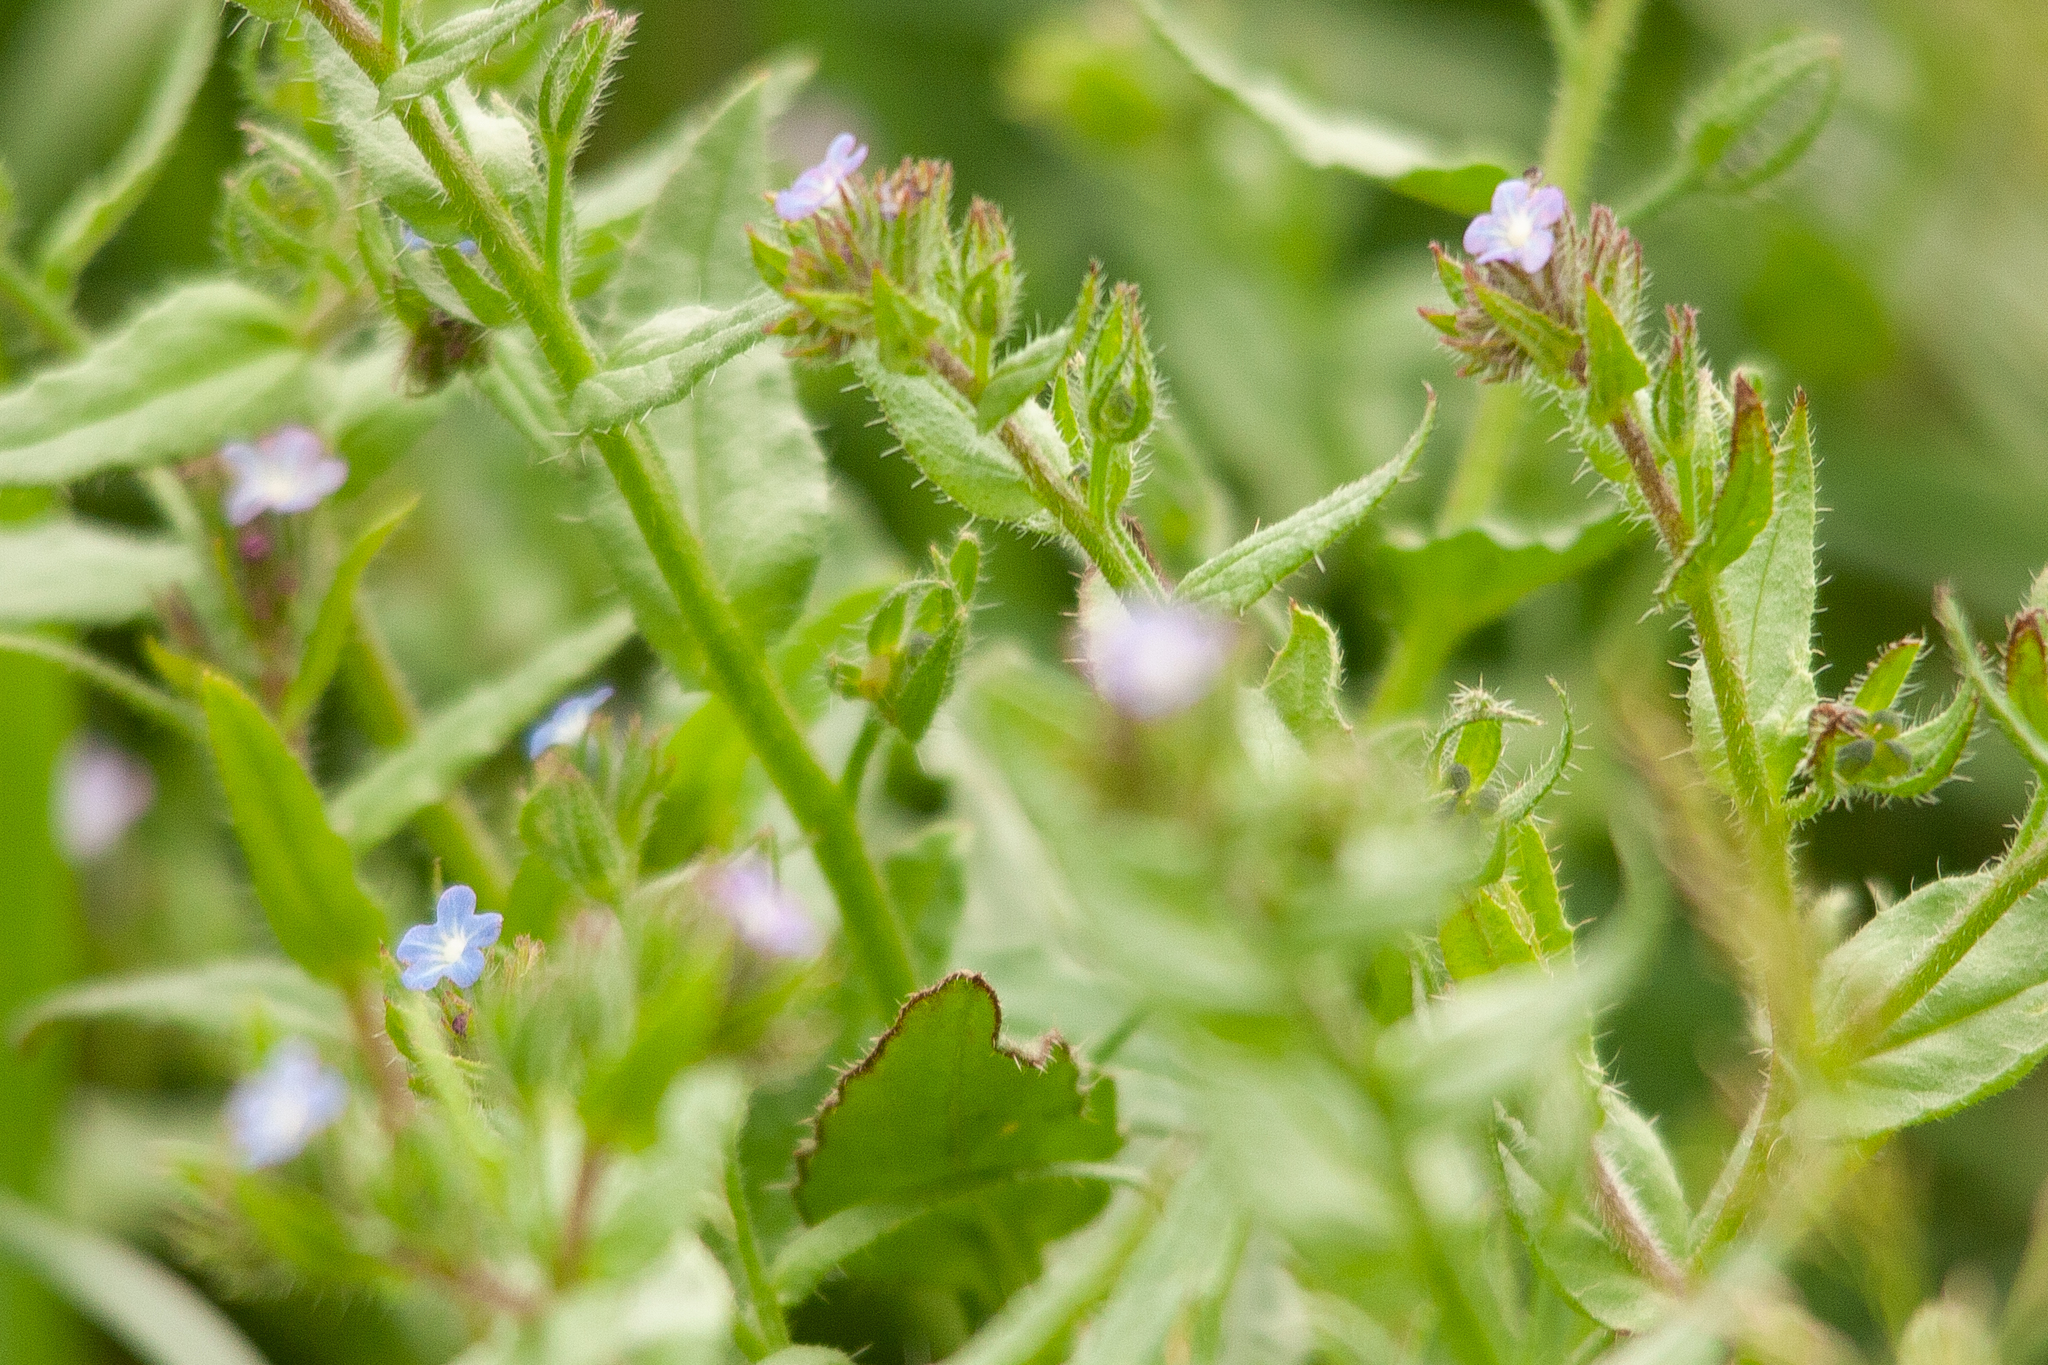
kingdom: Plantae
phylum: Tracheophyta
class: Magnoliopsida
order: Boraginales
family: Boraginaceae
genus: Lycopsis
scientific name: Lycopsis arvensis
